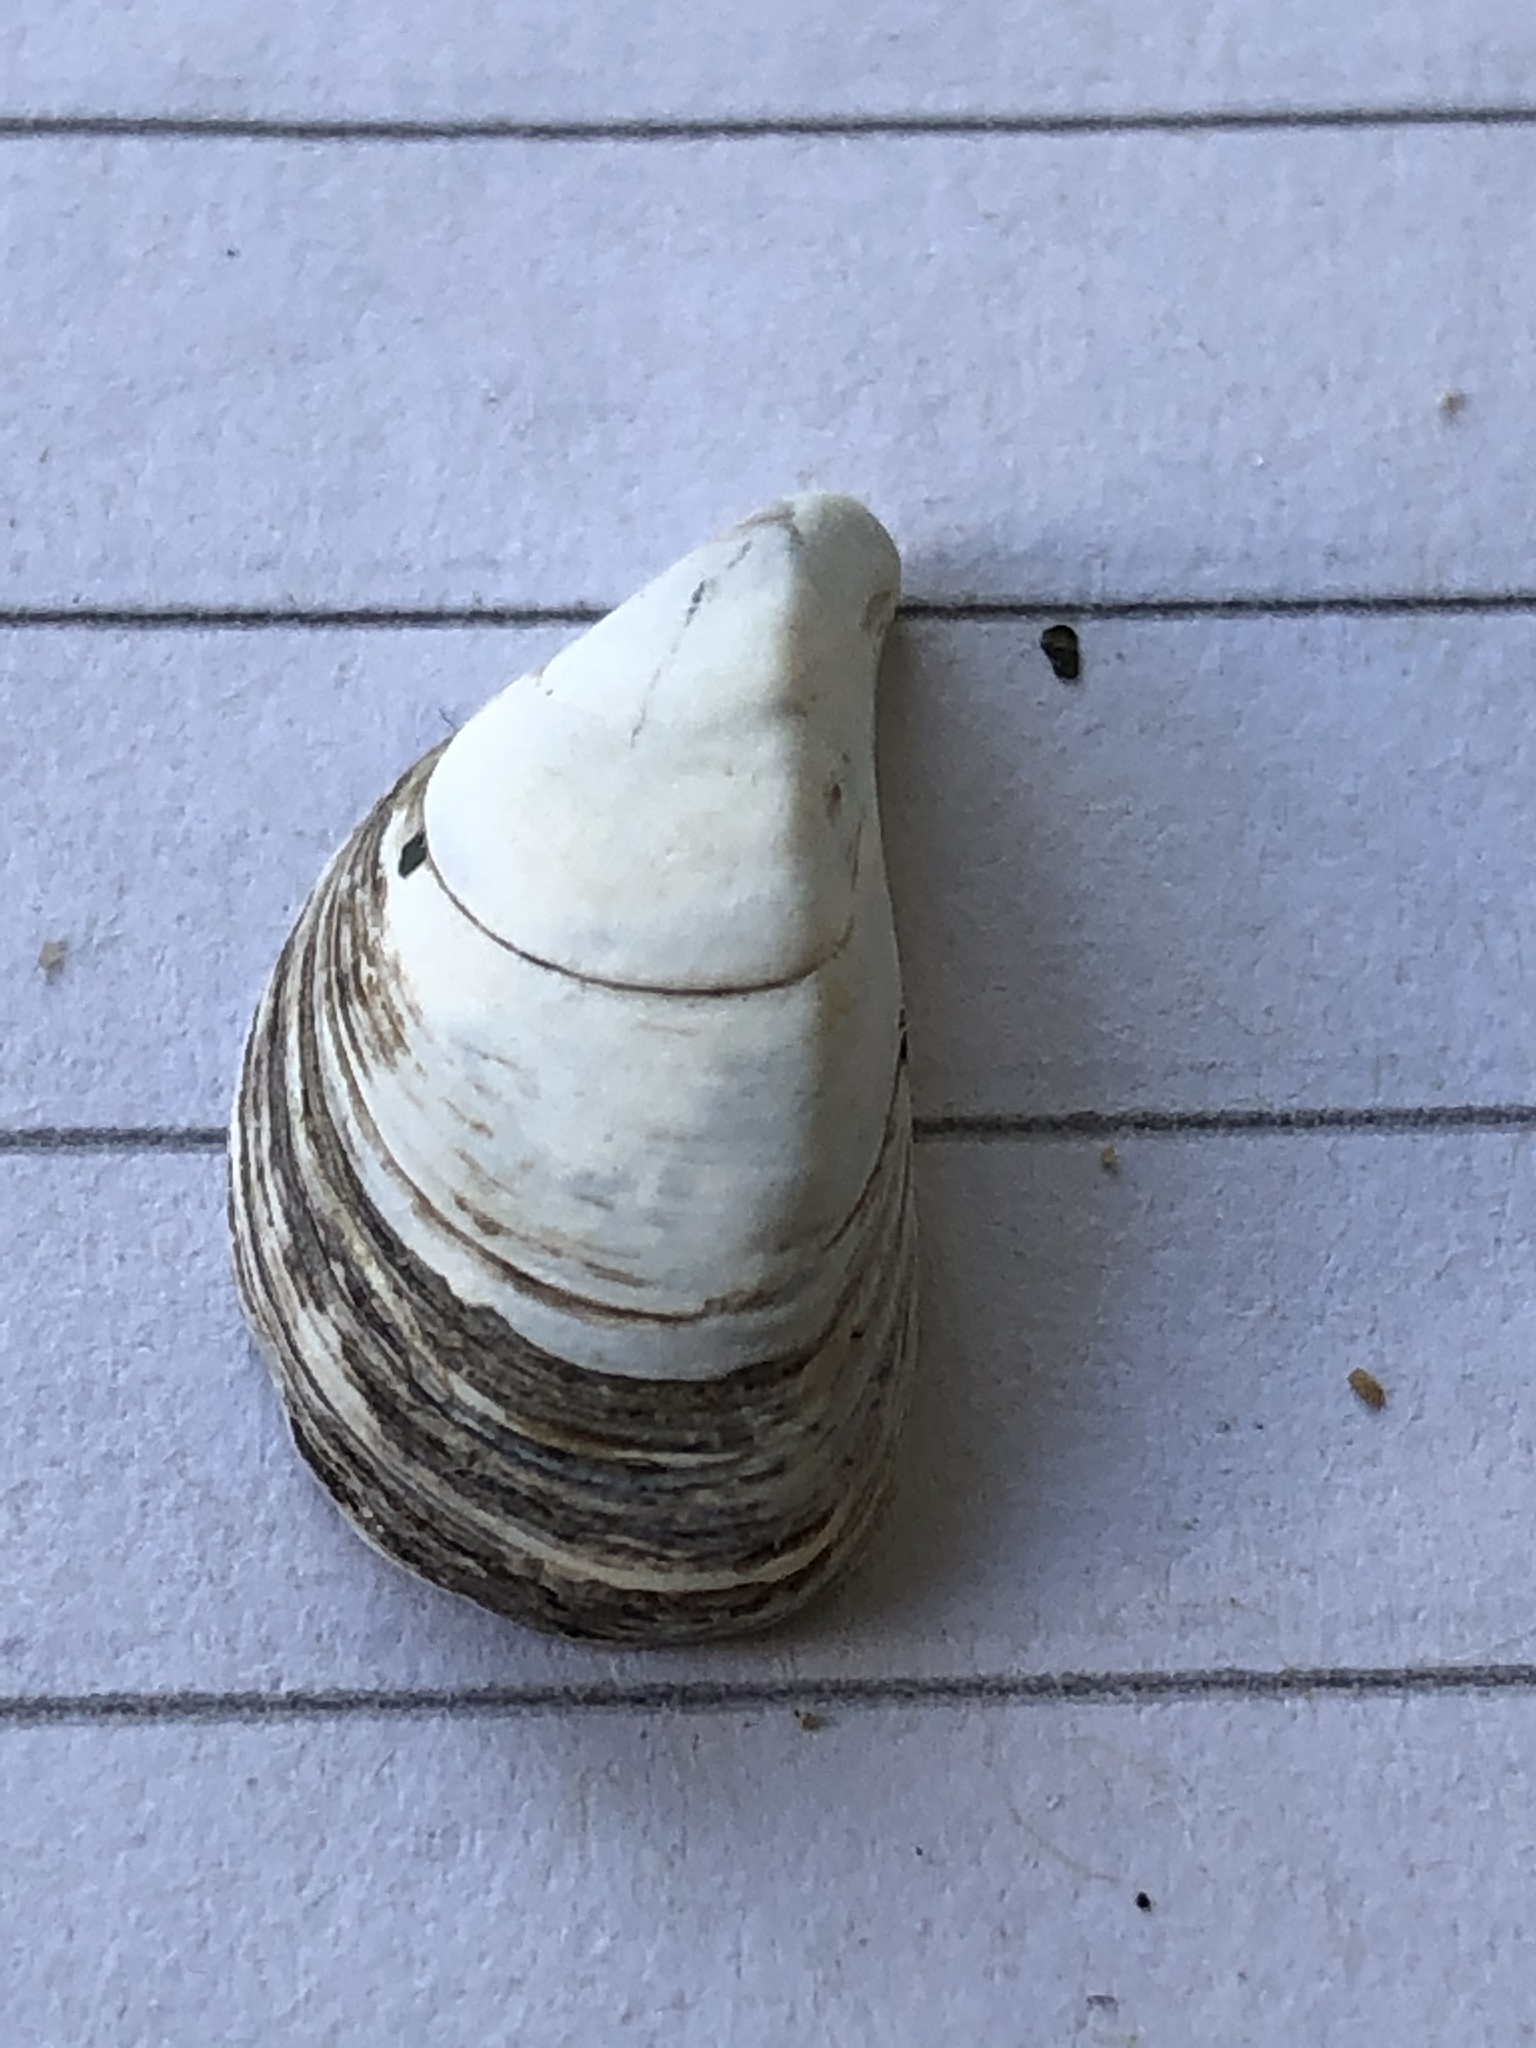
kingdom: Animalia
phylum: Mollusca
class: Bivalvia
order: Myida
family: Dreissenidae
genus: Dreissena
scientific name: Dreissena bugensis
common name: Quagga mussel
